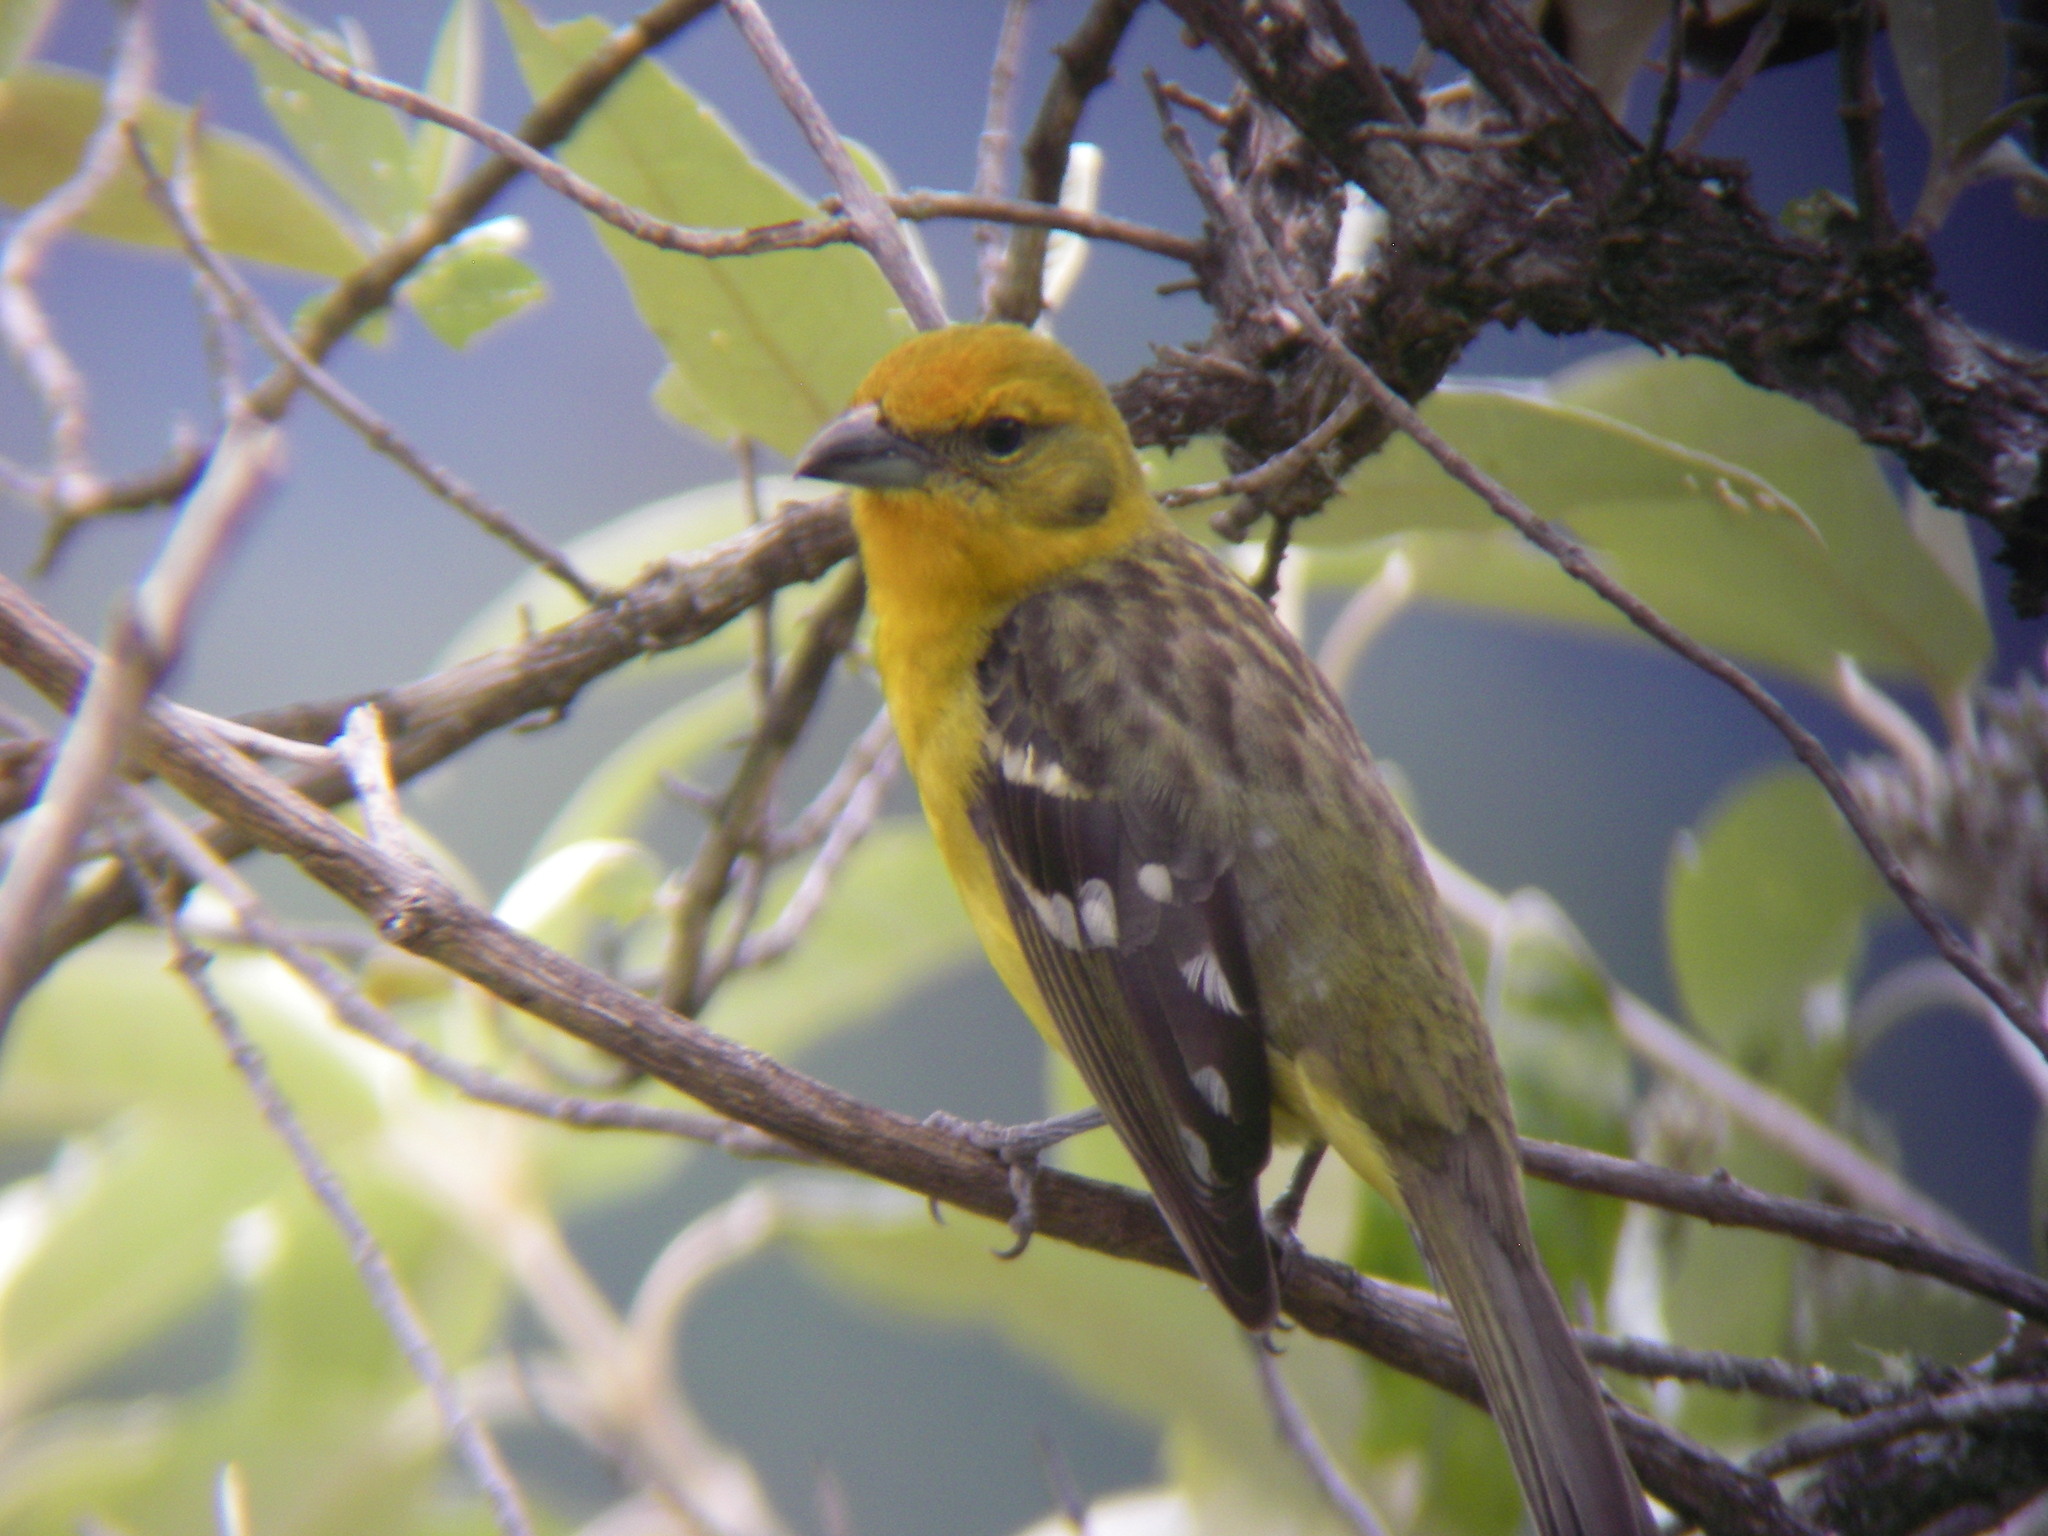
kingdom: Animalia
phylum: Chordata
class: Aves
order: Passeriformes
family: Cardinalidae
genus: Piranga
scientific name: Piranga bidentata
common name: Flame-colored tanager
